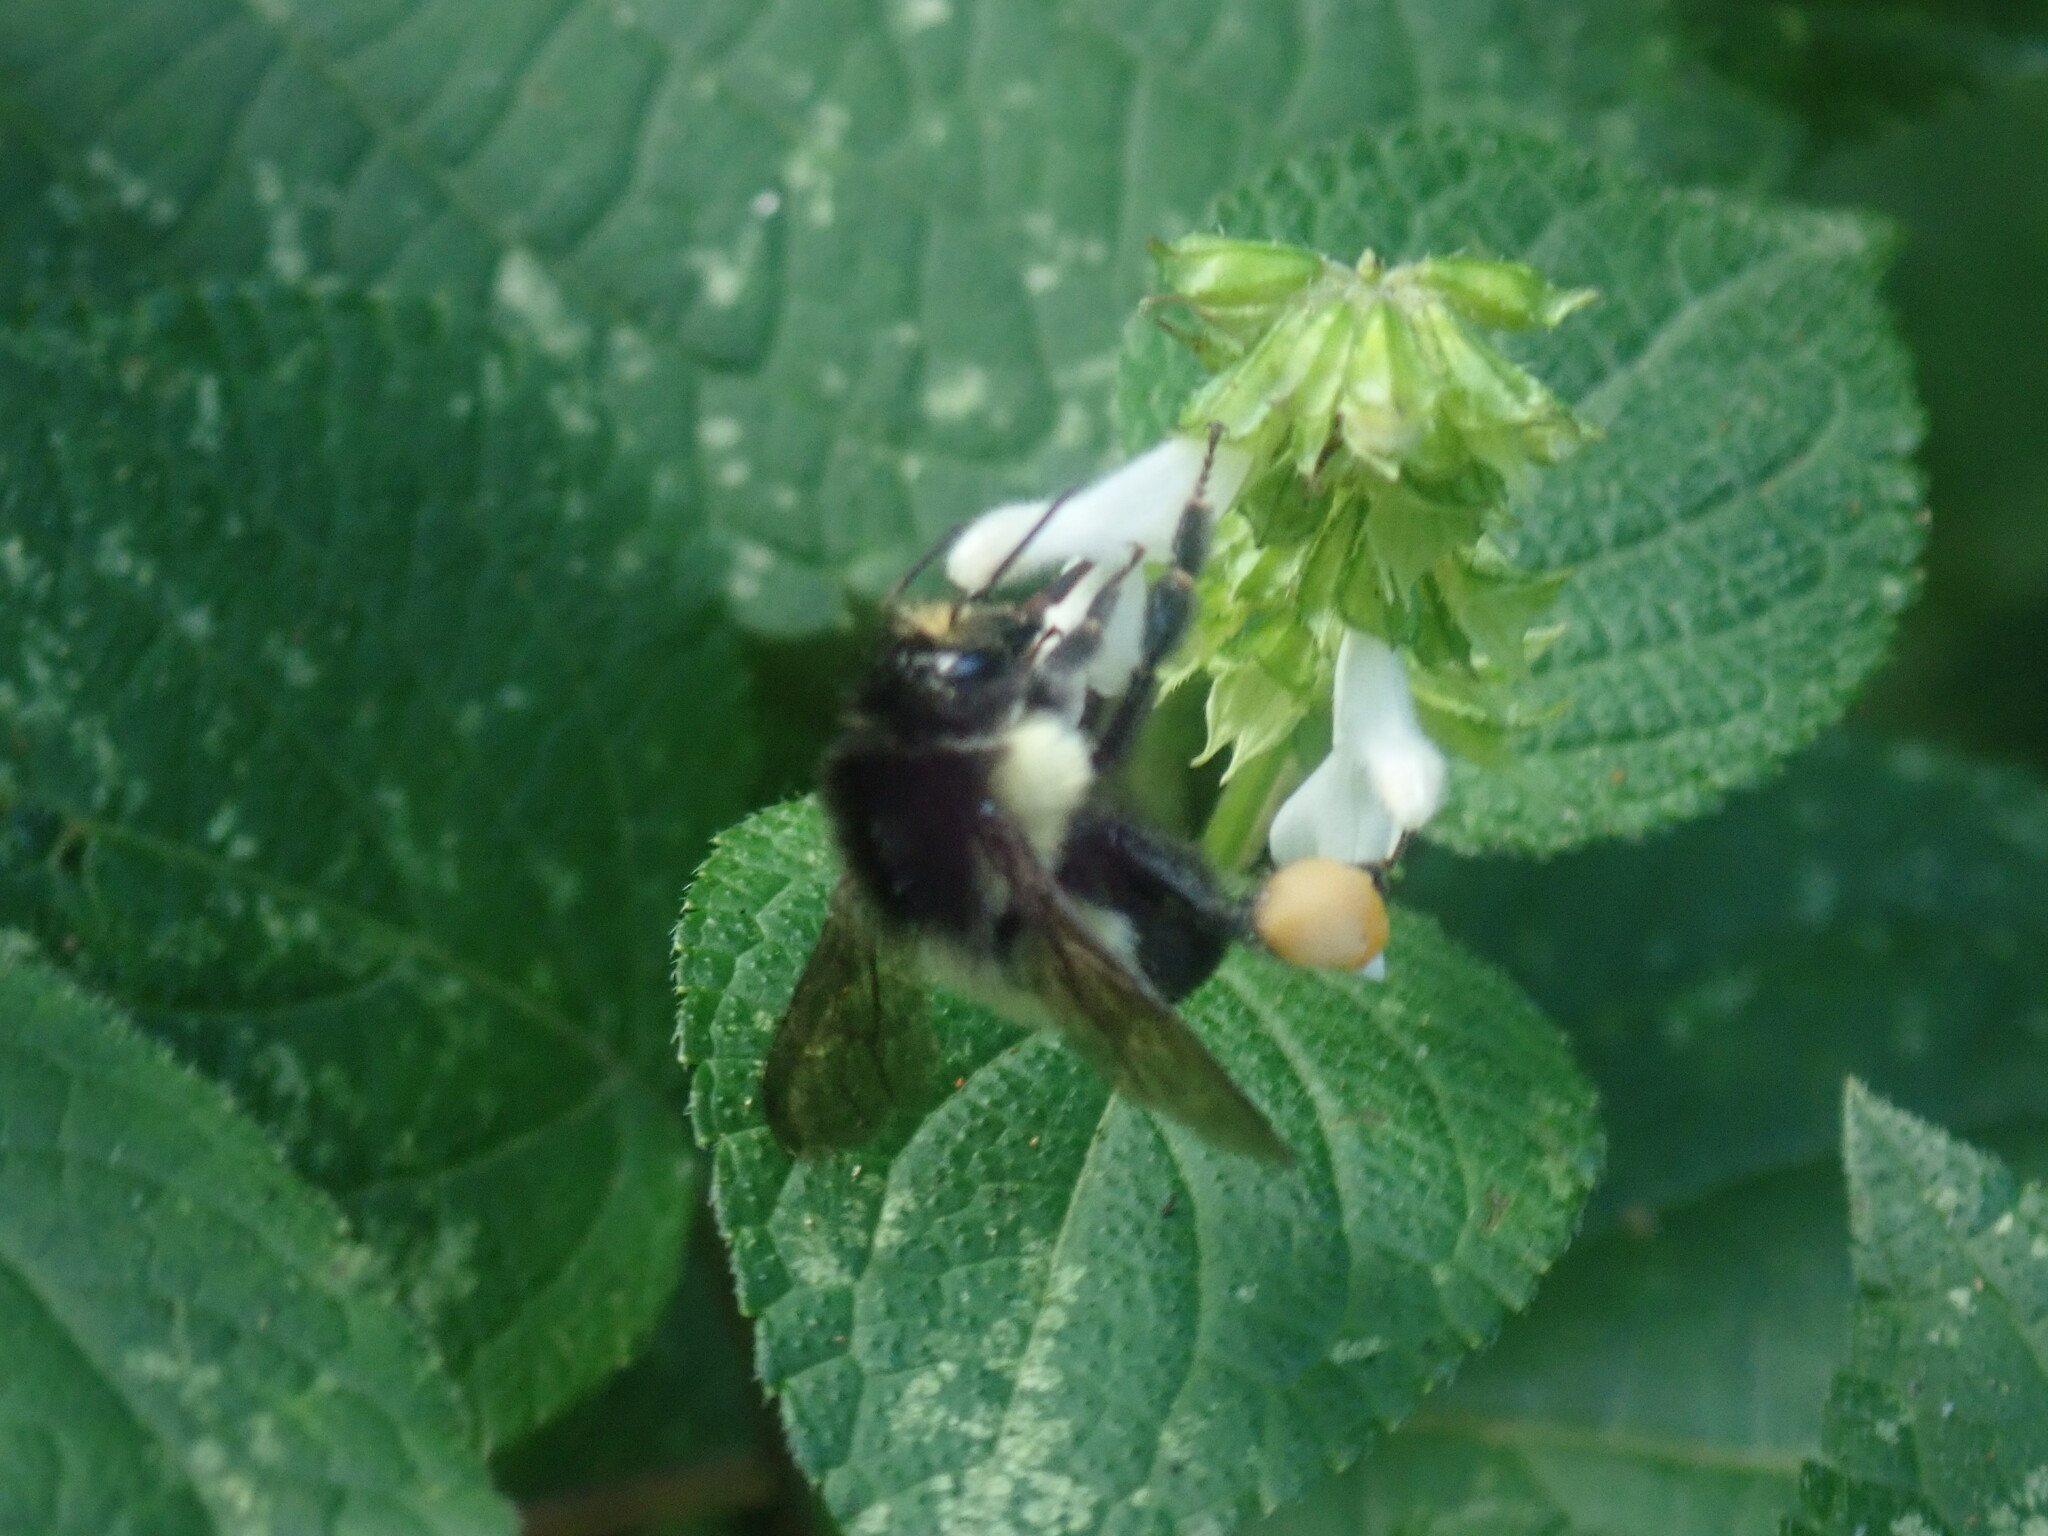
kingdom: Animalia
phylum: Arthropoda
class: Insecta
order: Hymenoptera
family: Apidae
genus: Bombus
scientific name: Bombus ephippiatus
